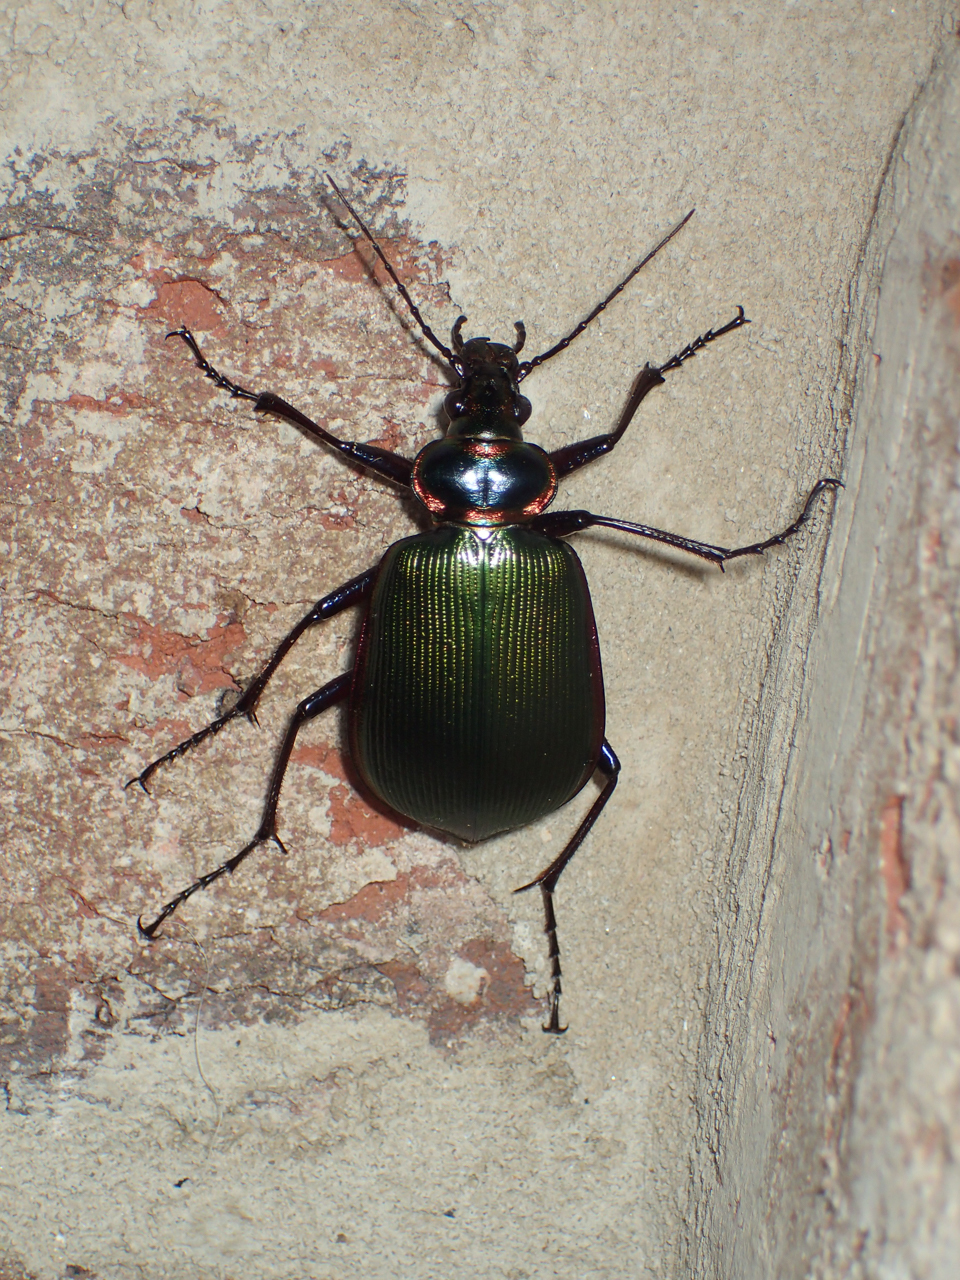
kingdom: Animalia
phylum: Arthropoda
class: Insecta
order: Coleoptera
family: Carabidae
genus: Calosoma
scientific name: Calosoma scrutator
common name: Fiery searcher beetle
